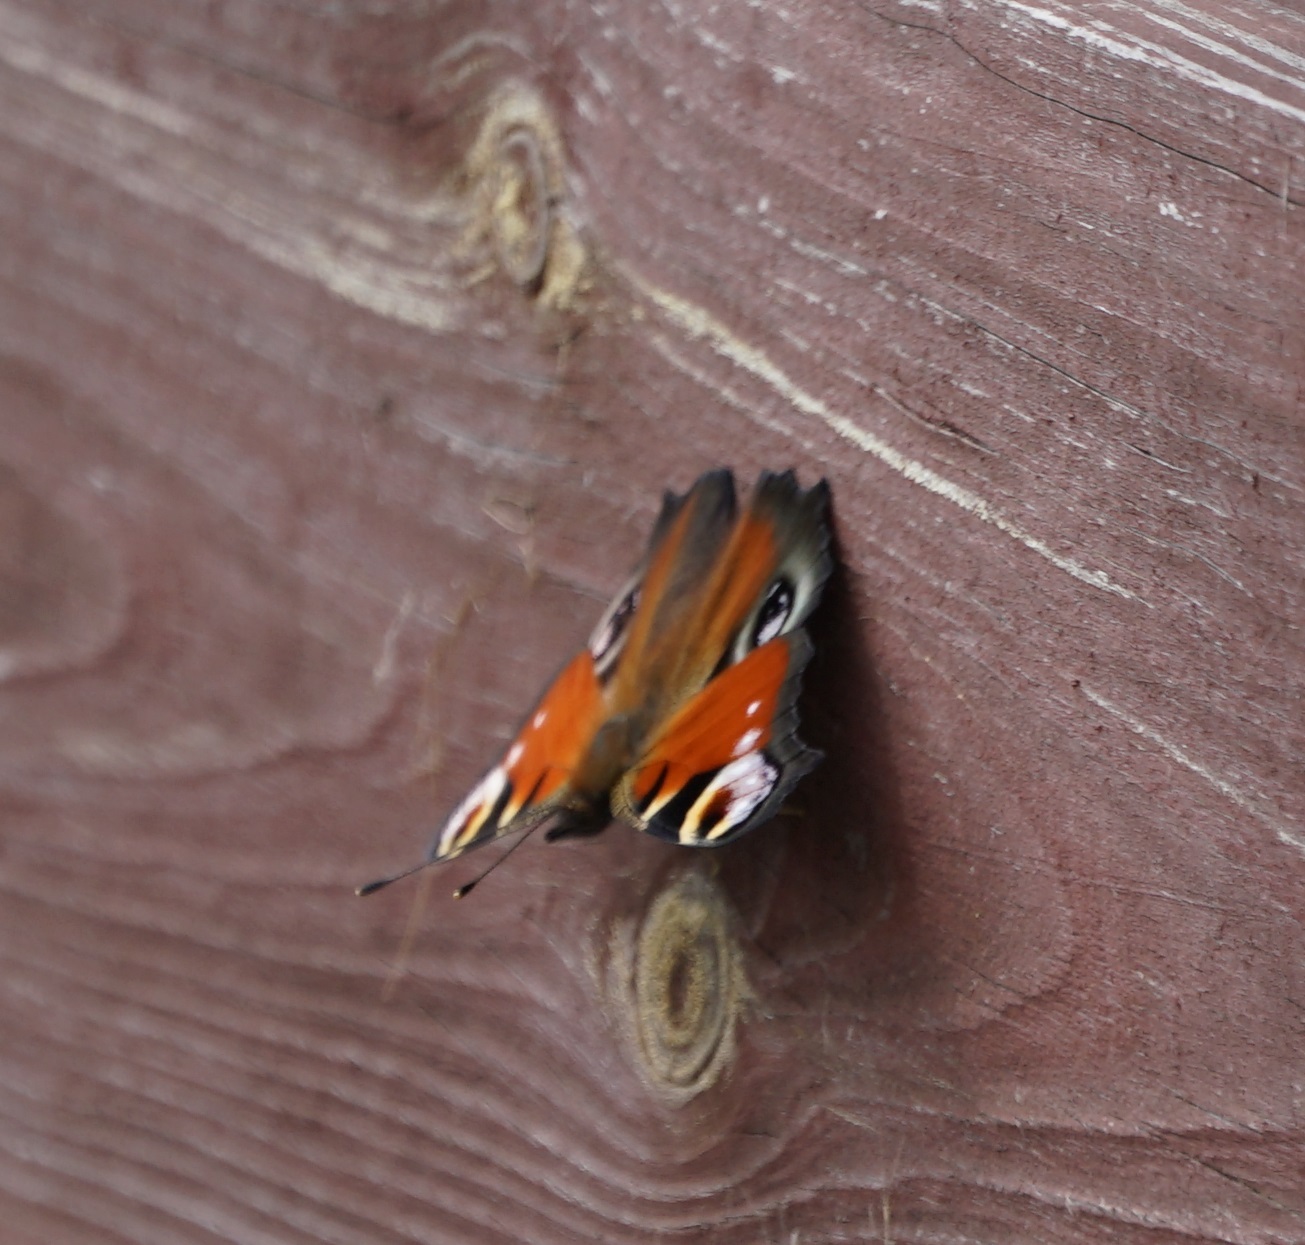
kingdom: Animalia
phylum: Arthropoda
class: Insecta
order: Lepidoptera
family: Nymphalidae
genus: Aglais
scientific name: Aglais io
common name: Peacock
